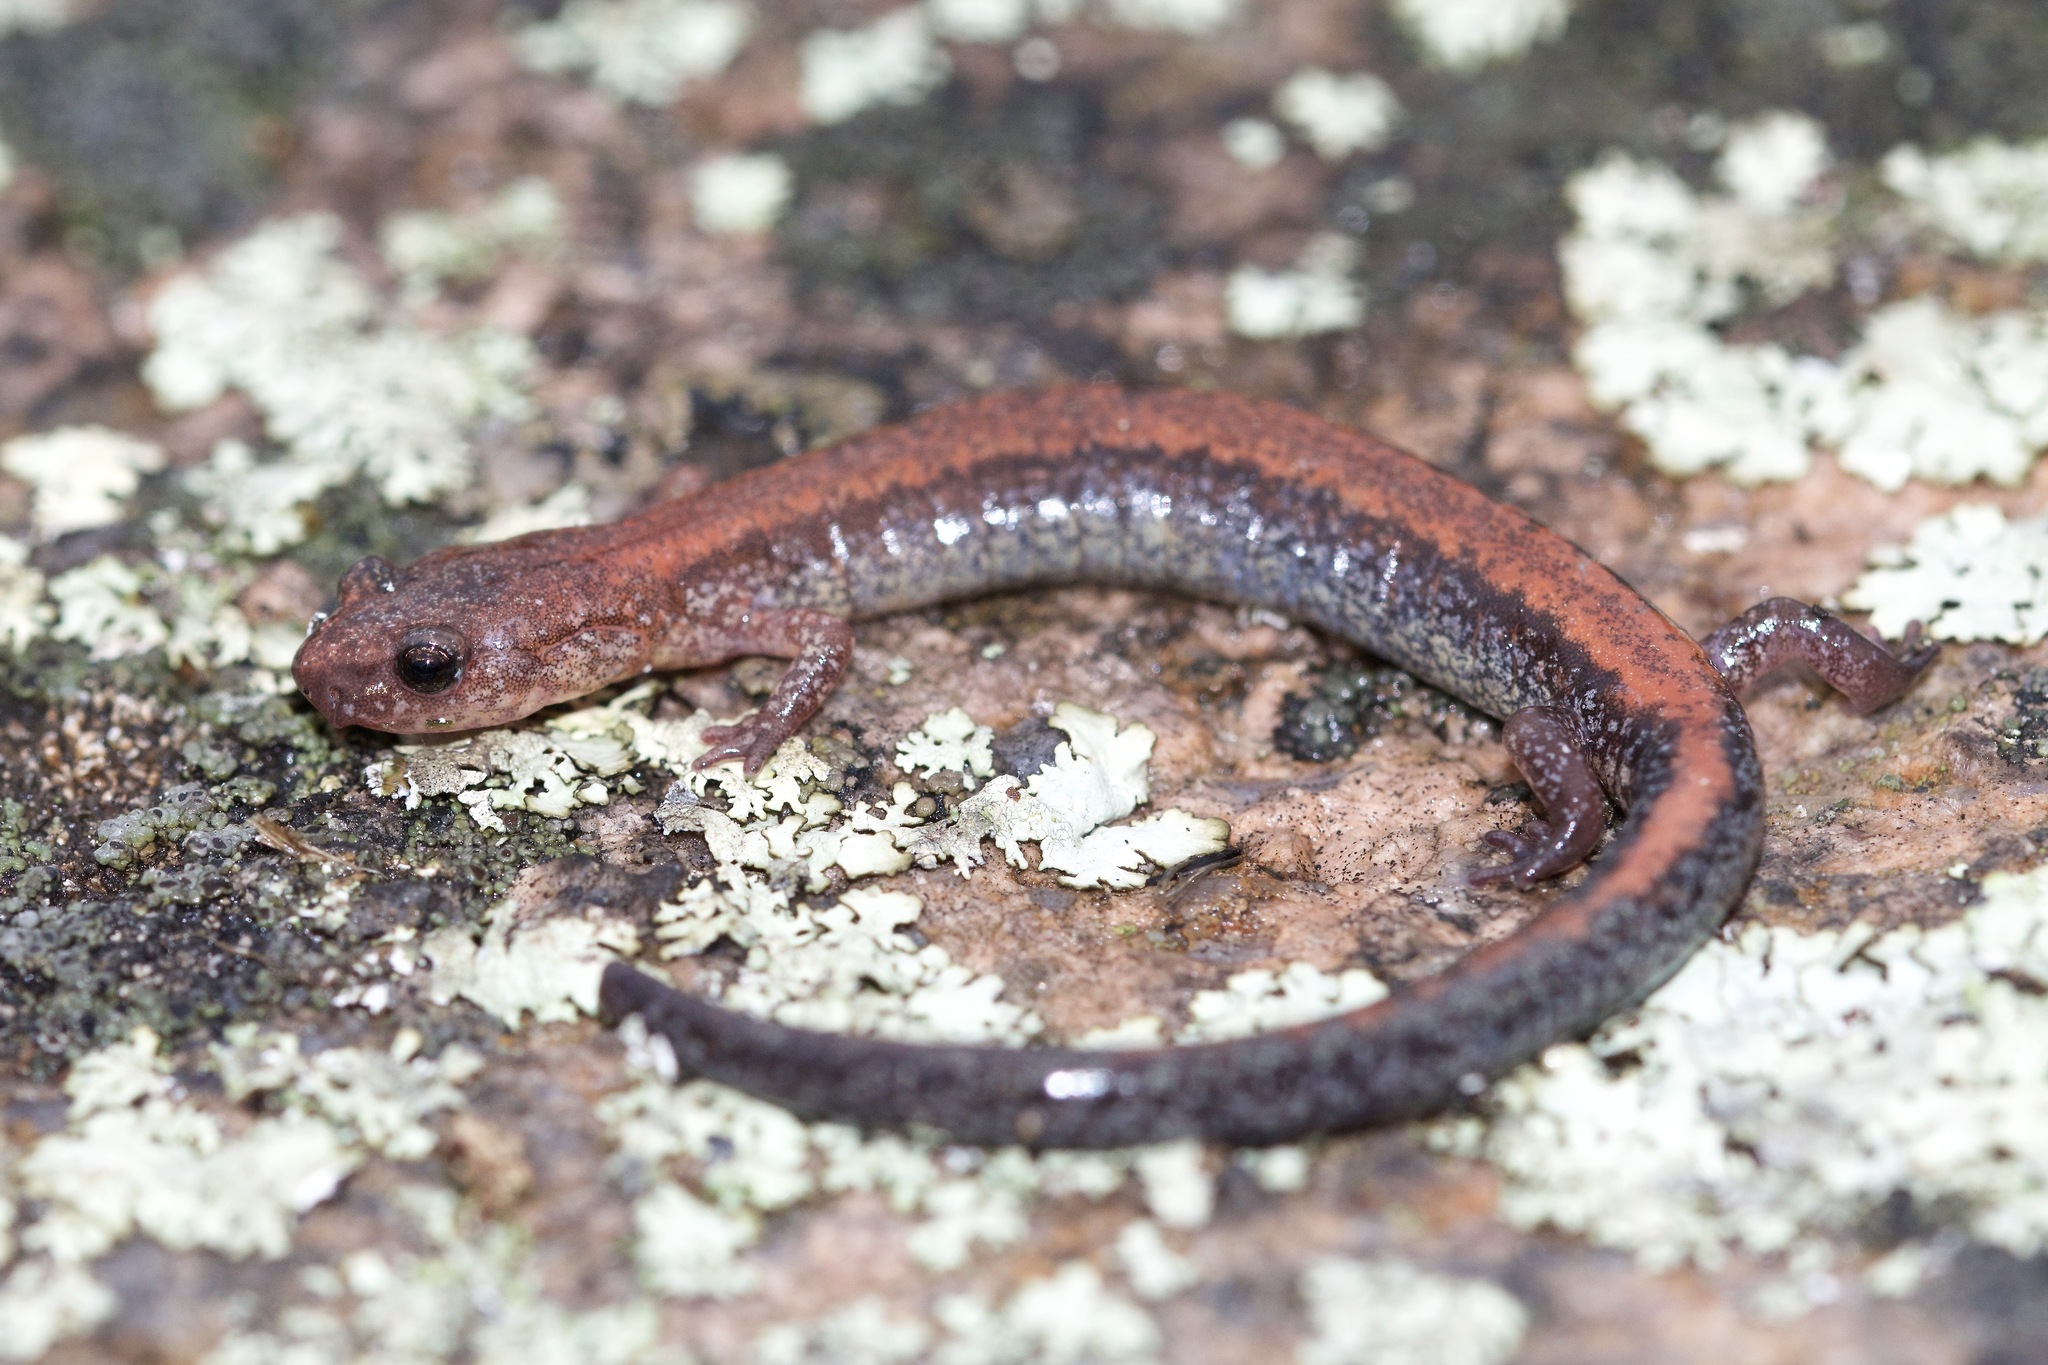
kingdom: Animalia
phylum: Chordata
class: Amphibia
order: Caudata
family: Plethodontidae
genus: Plethodon
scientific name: Plethodon cinereus
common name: Redback salamander
